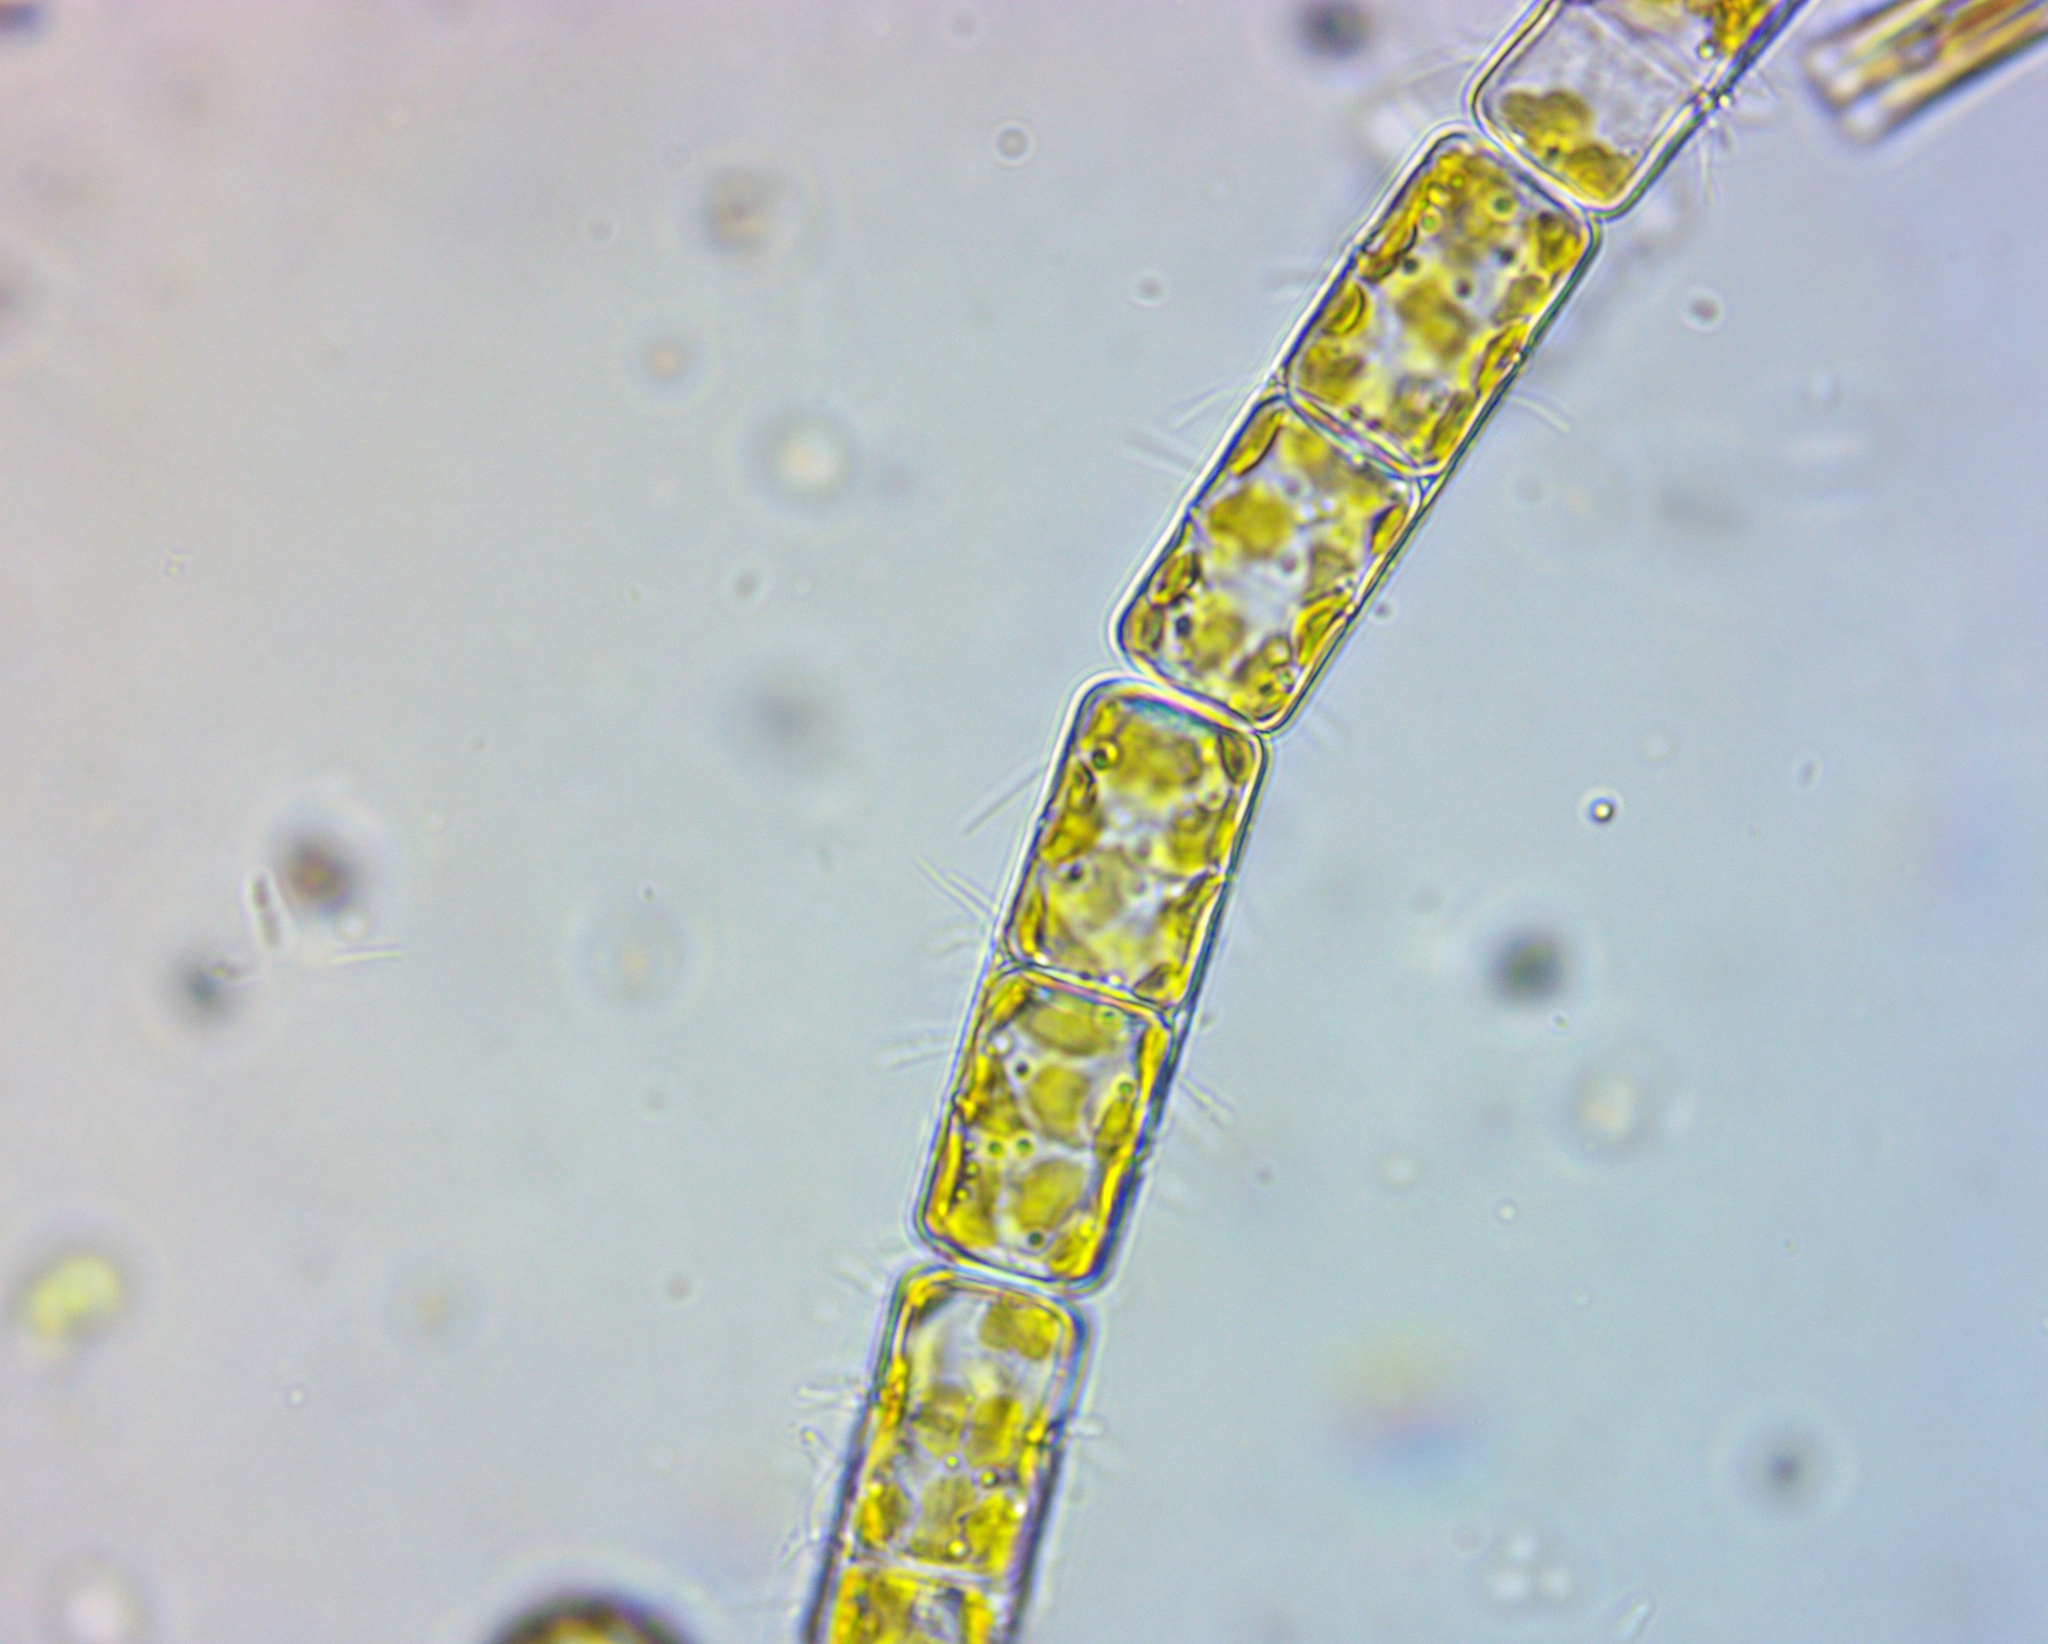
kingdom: Chromista
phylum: Ochrophyta
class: Bacillariophyceae
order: Melosirales
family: Melosiraceae
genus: Melosira
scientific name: Melosira varians
